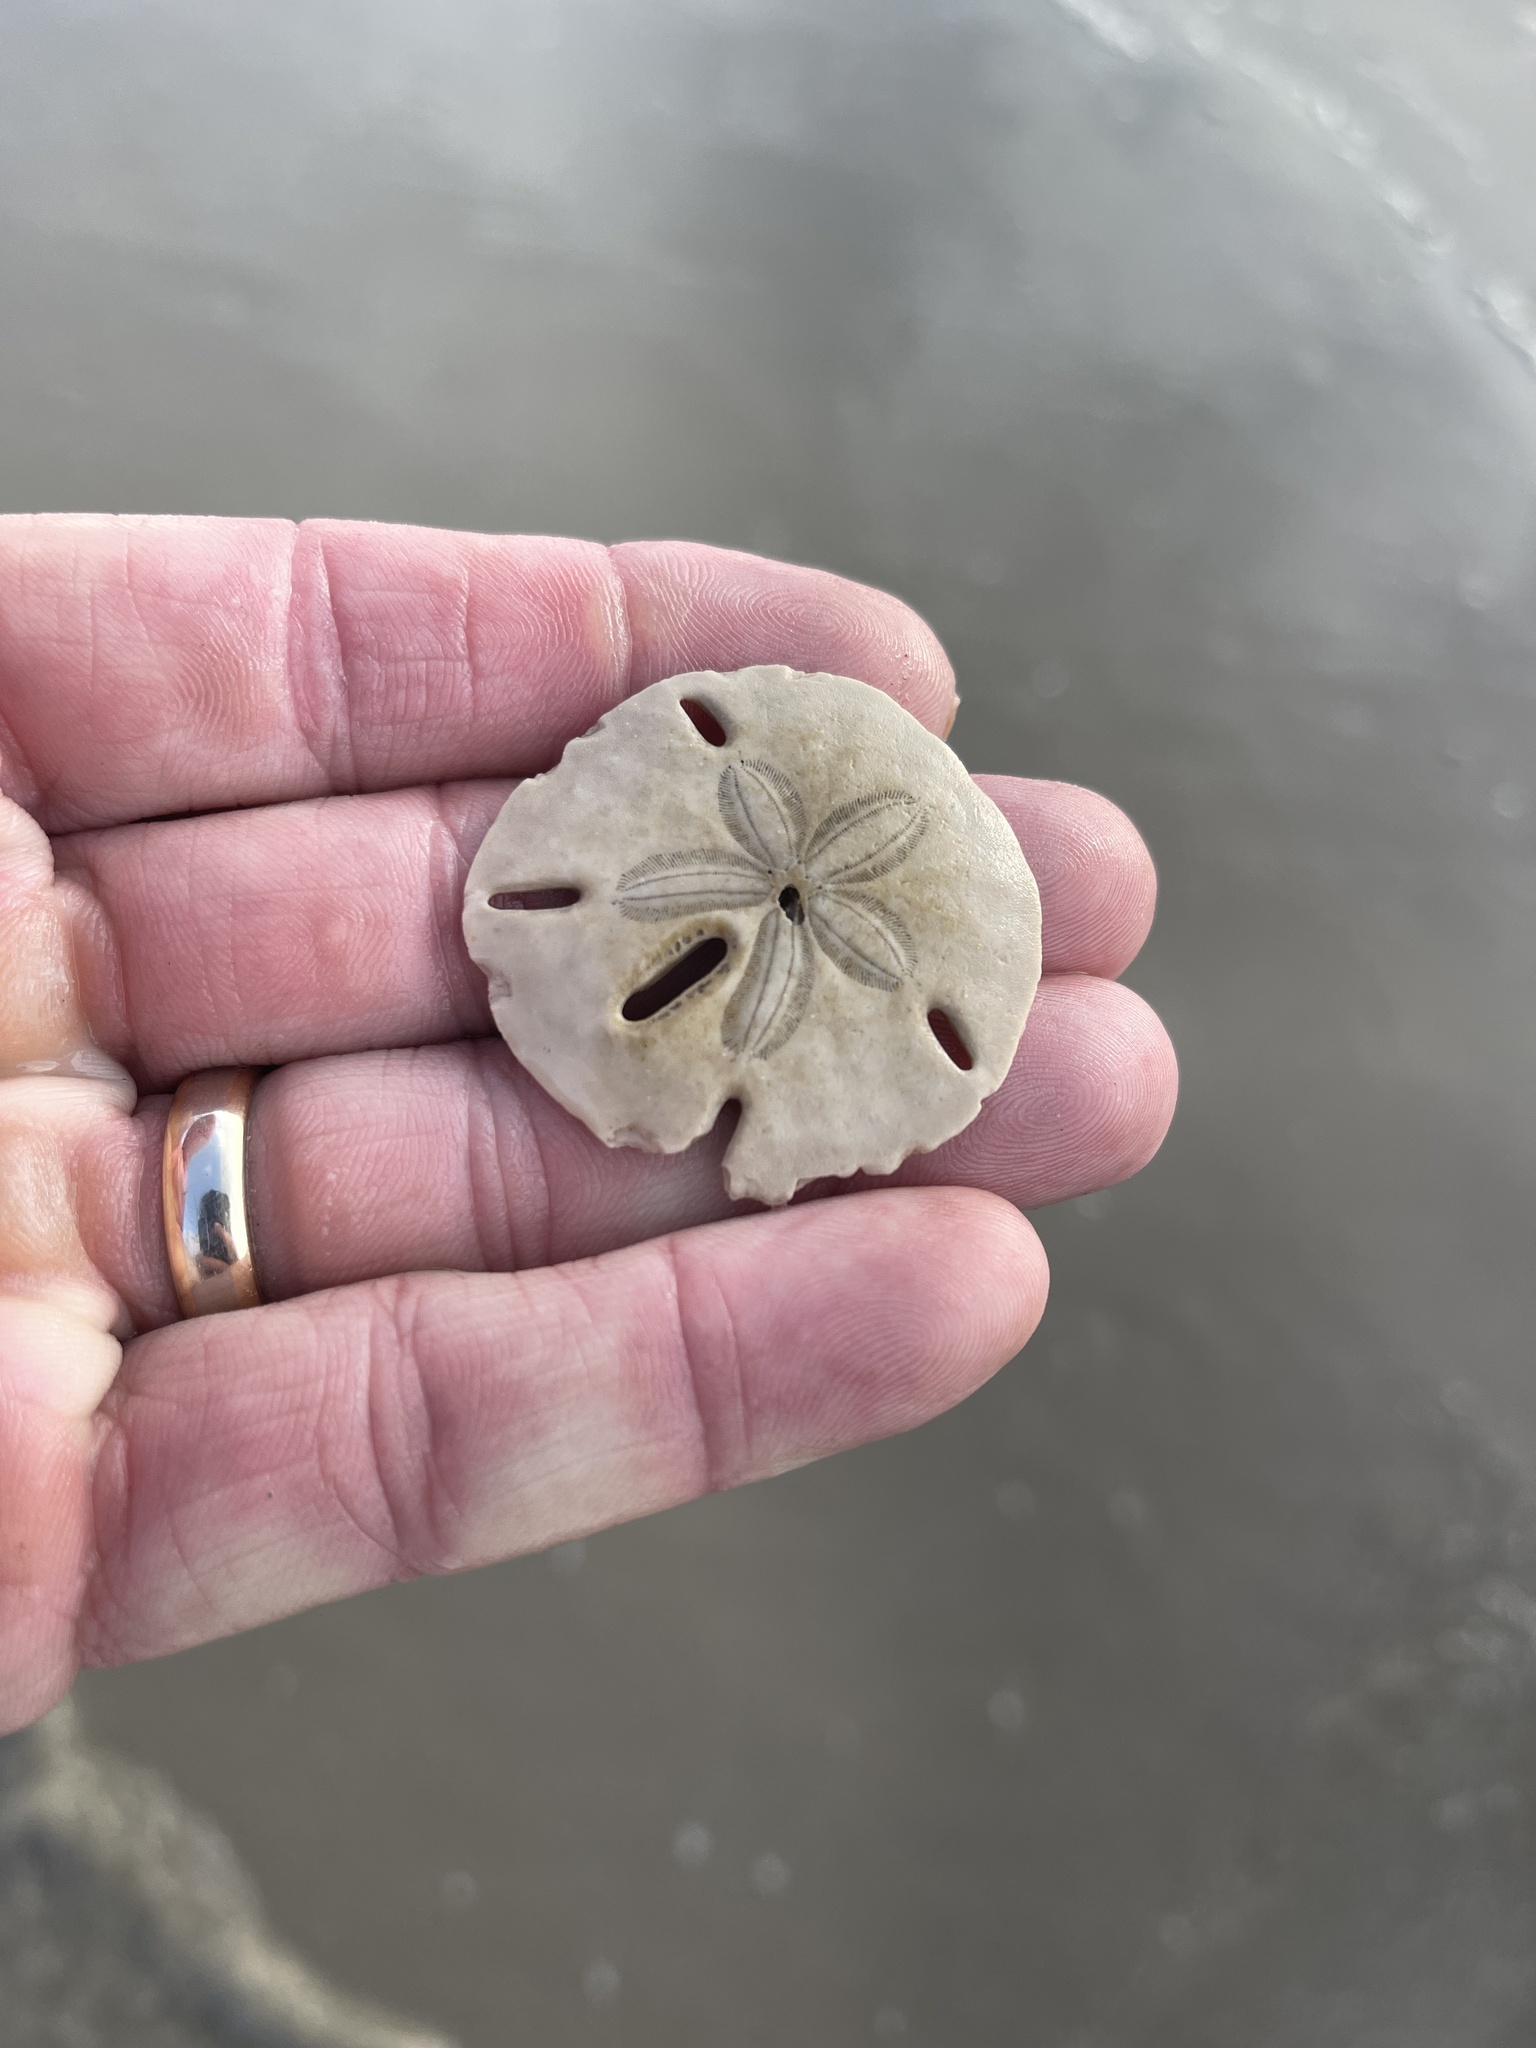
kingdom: Animalia
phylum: Echinodermata
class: Echinoidea
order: Echinolampadacea
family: Mellitidae
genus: Mellita
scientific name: Mellita quinquiesperforata
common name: Sand dollar
